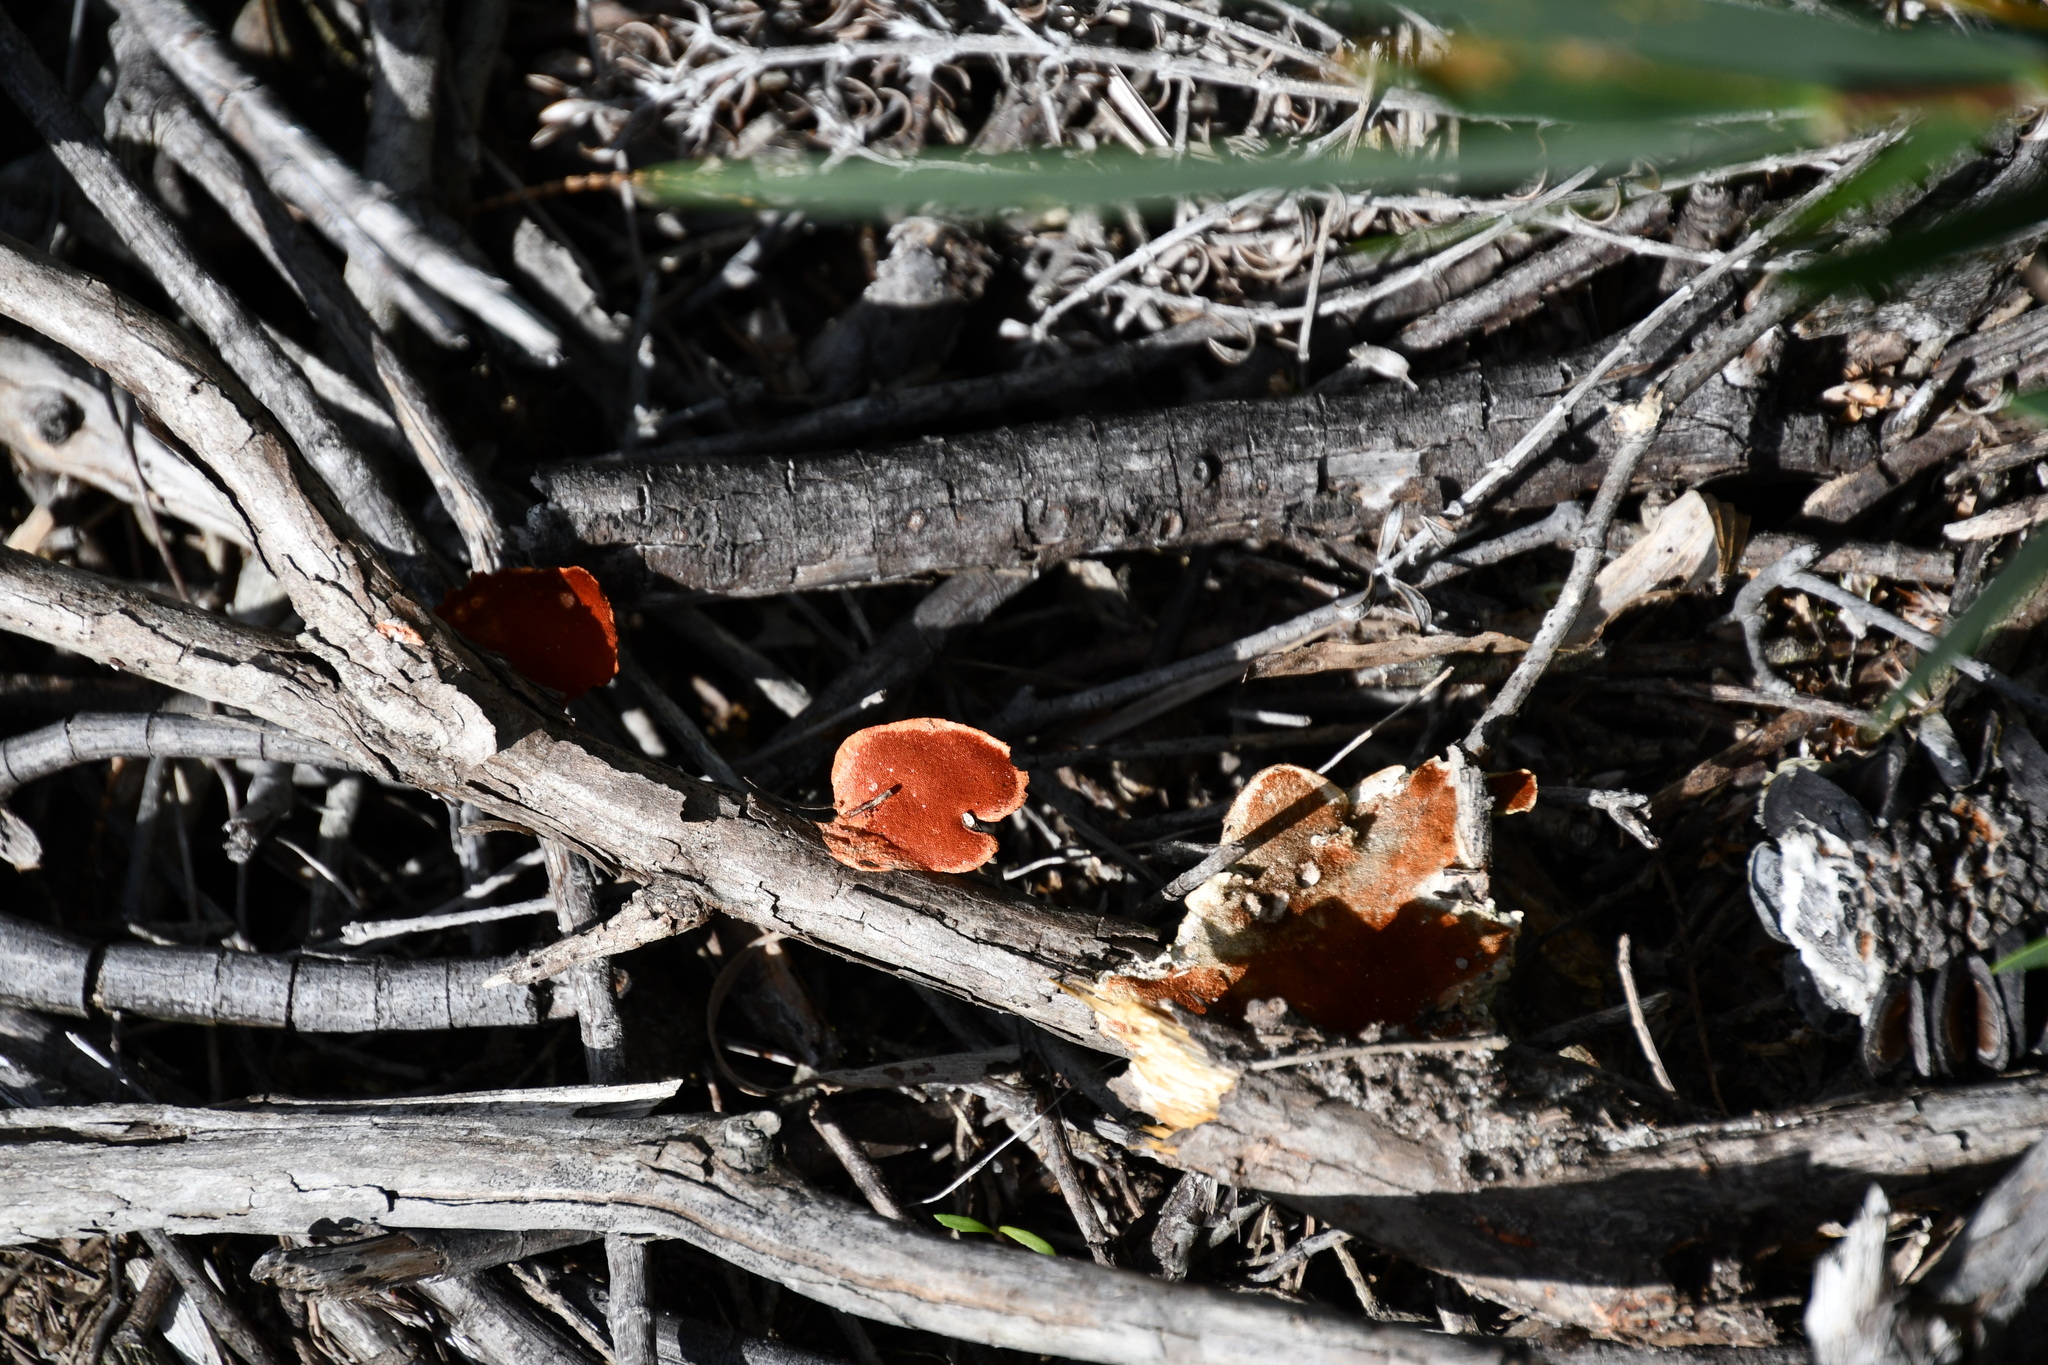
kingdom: Fungi
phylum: Basidiomycota
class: Agaricomycetes
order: Polyporales
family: Polyporaceae
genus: Trametes
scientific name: Trametes coccinea
